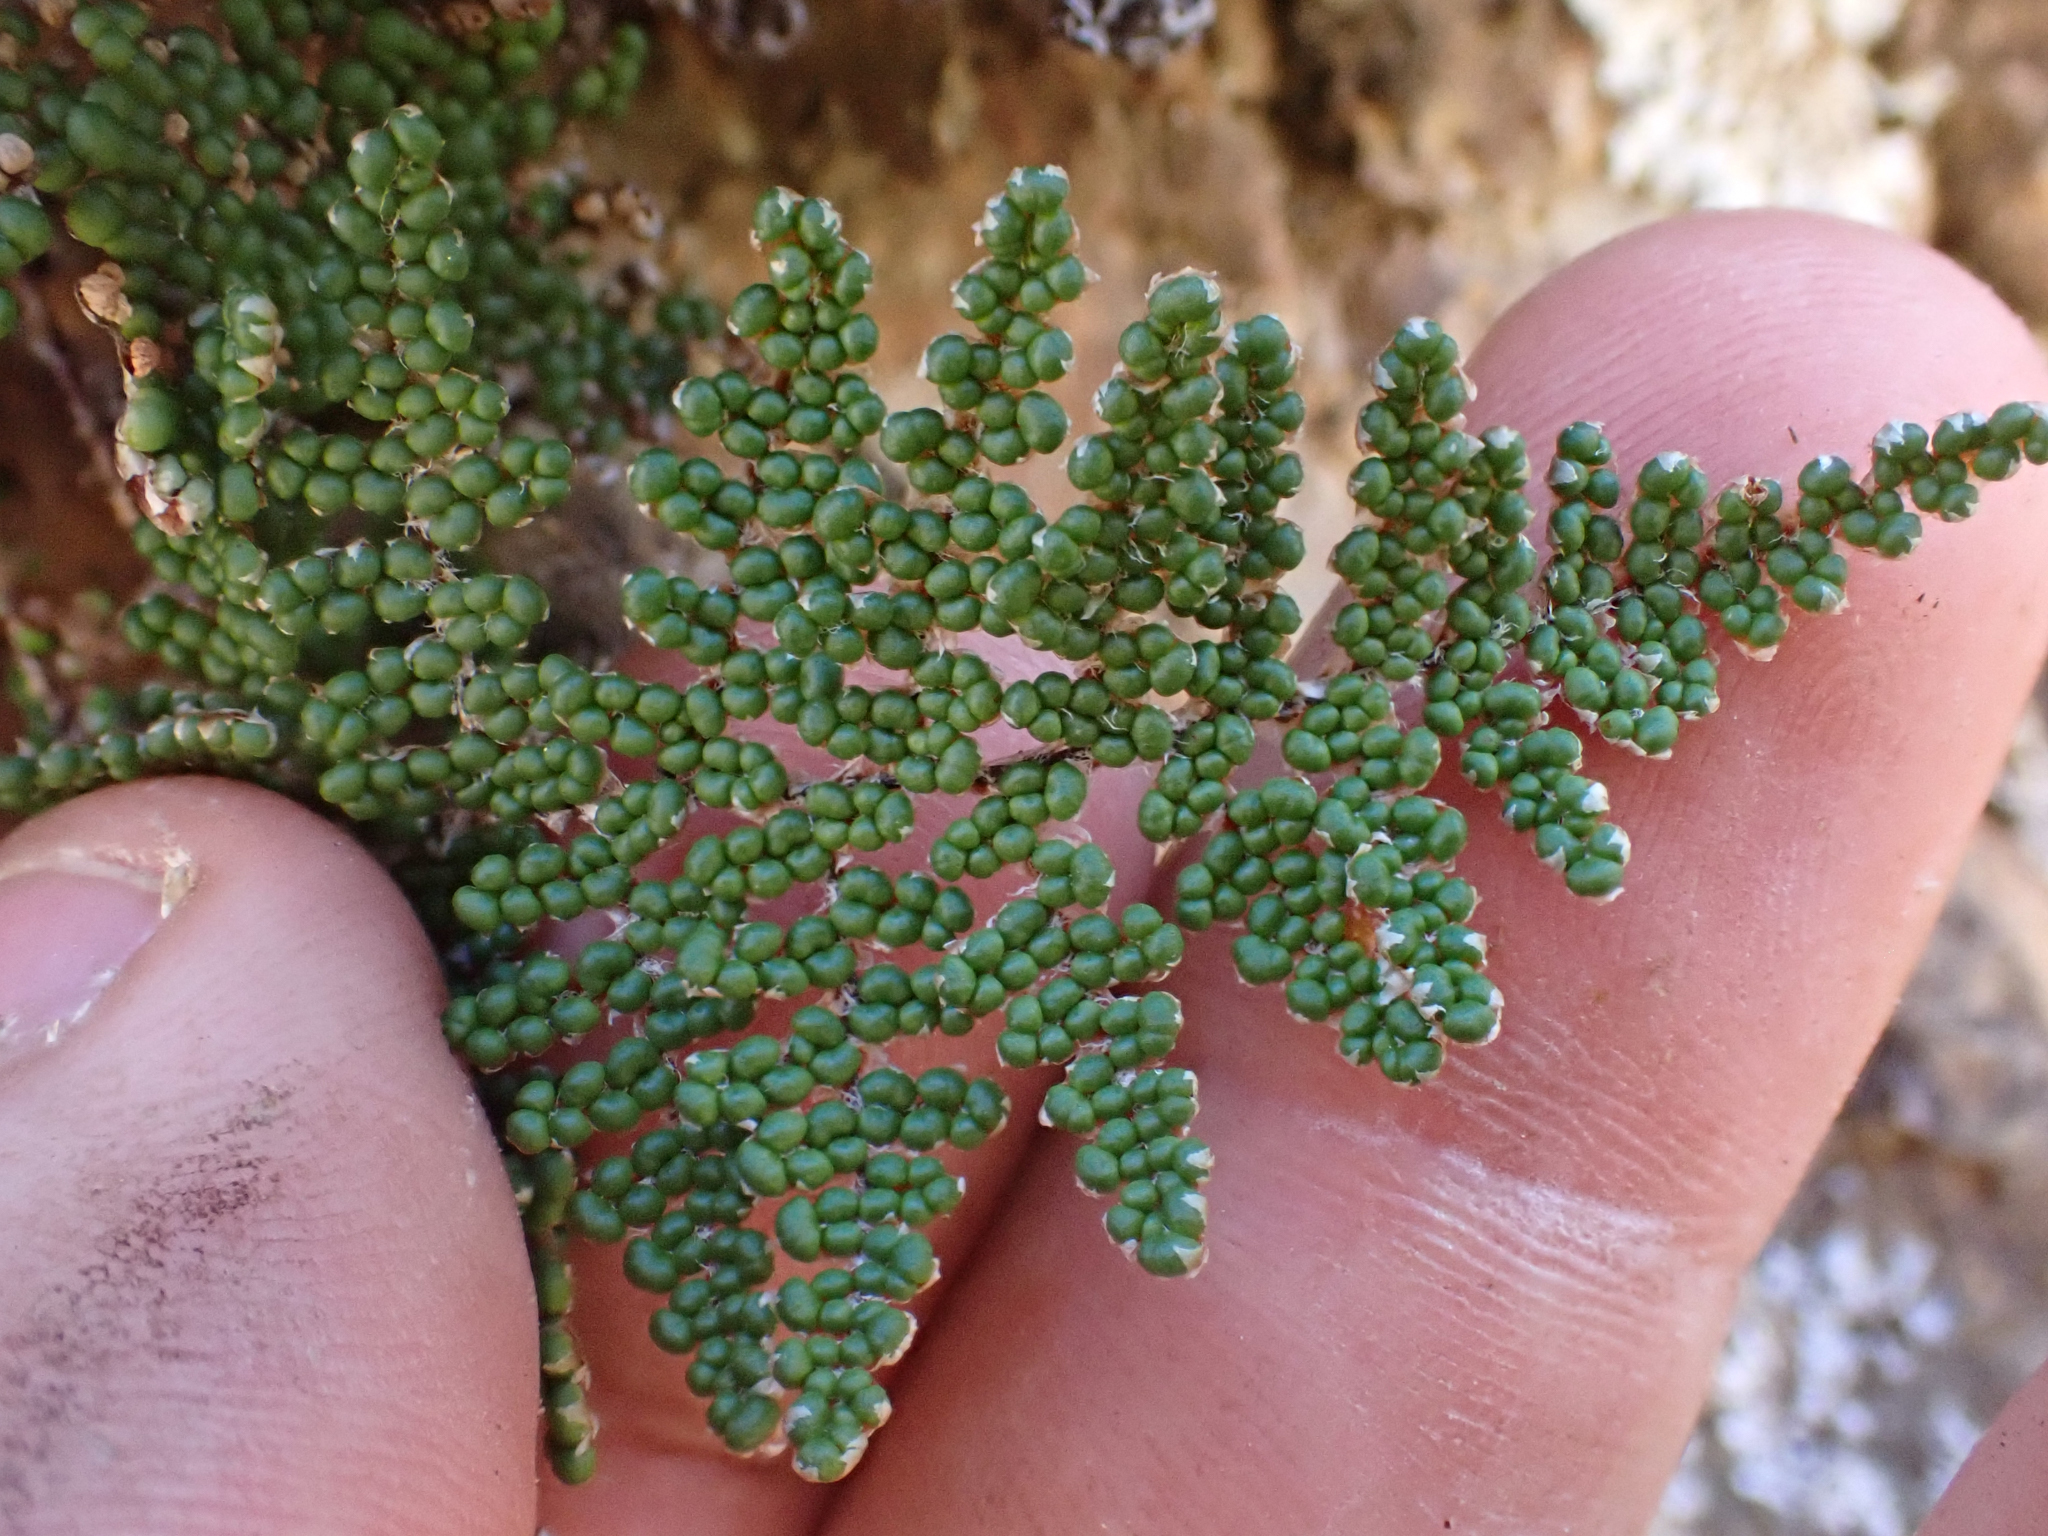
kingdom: Plantae
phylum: Tracheophyta
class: Polypodiopsida
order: Polypodiales
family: Pteridaceae
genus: Myriopteris
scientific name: Myriopteris covillei
